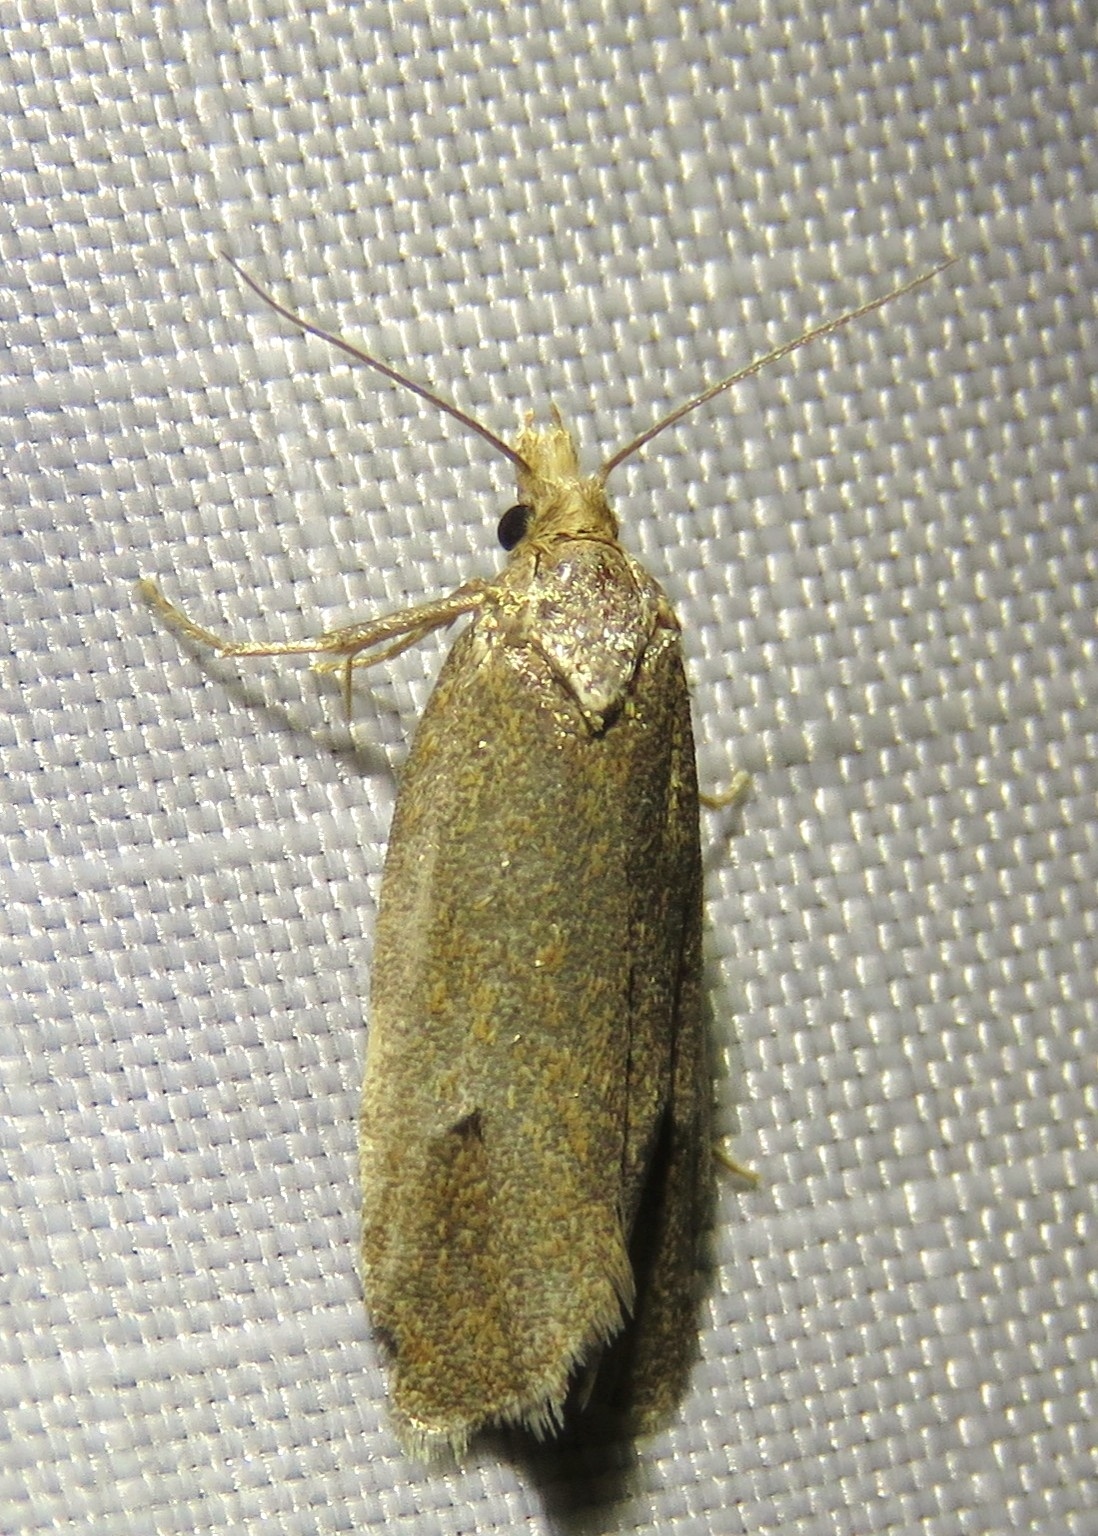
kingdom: Animalia
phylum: Arthropoda
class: Insecta
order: Lepidoptera
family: Tortricidae
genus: Phtheochroa
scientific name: Phtheochroa inopiana
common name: Plain conch
